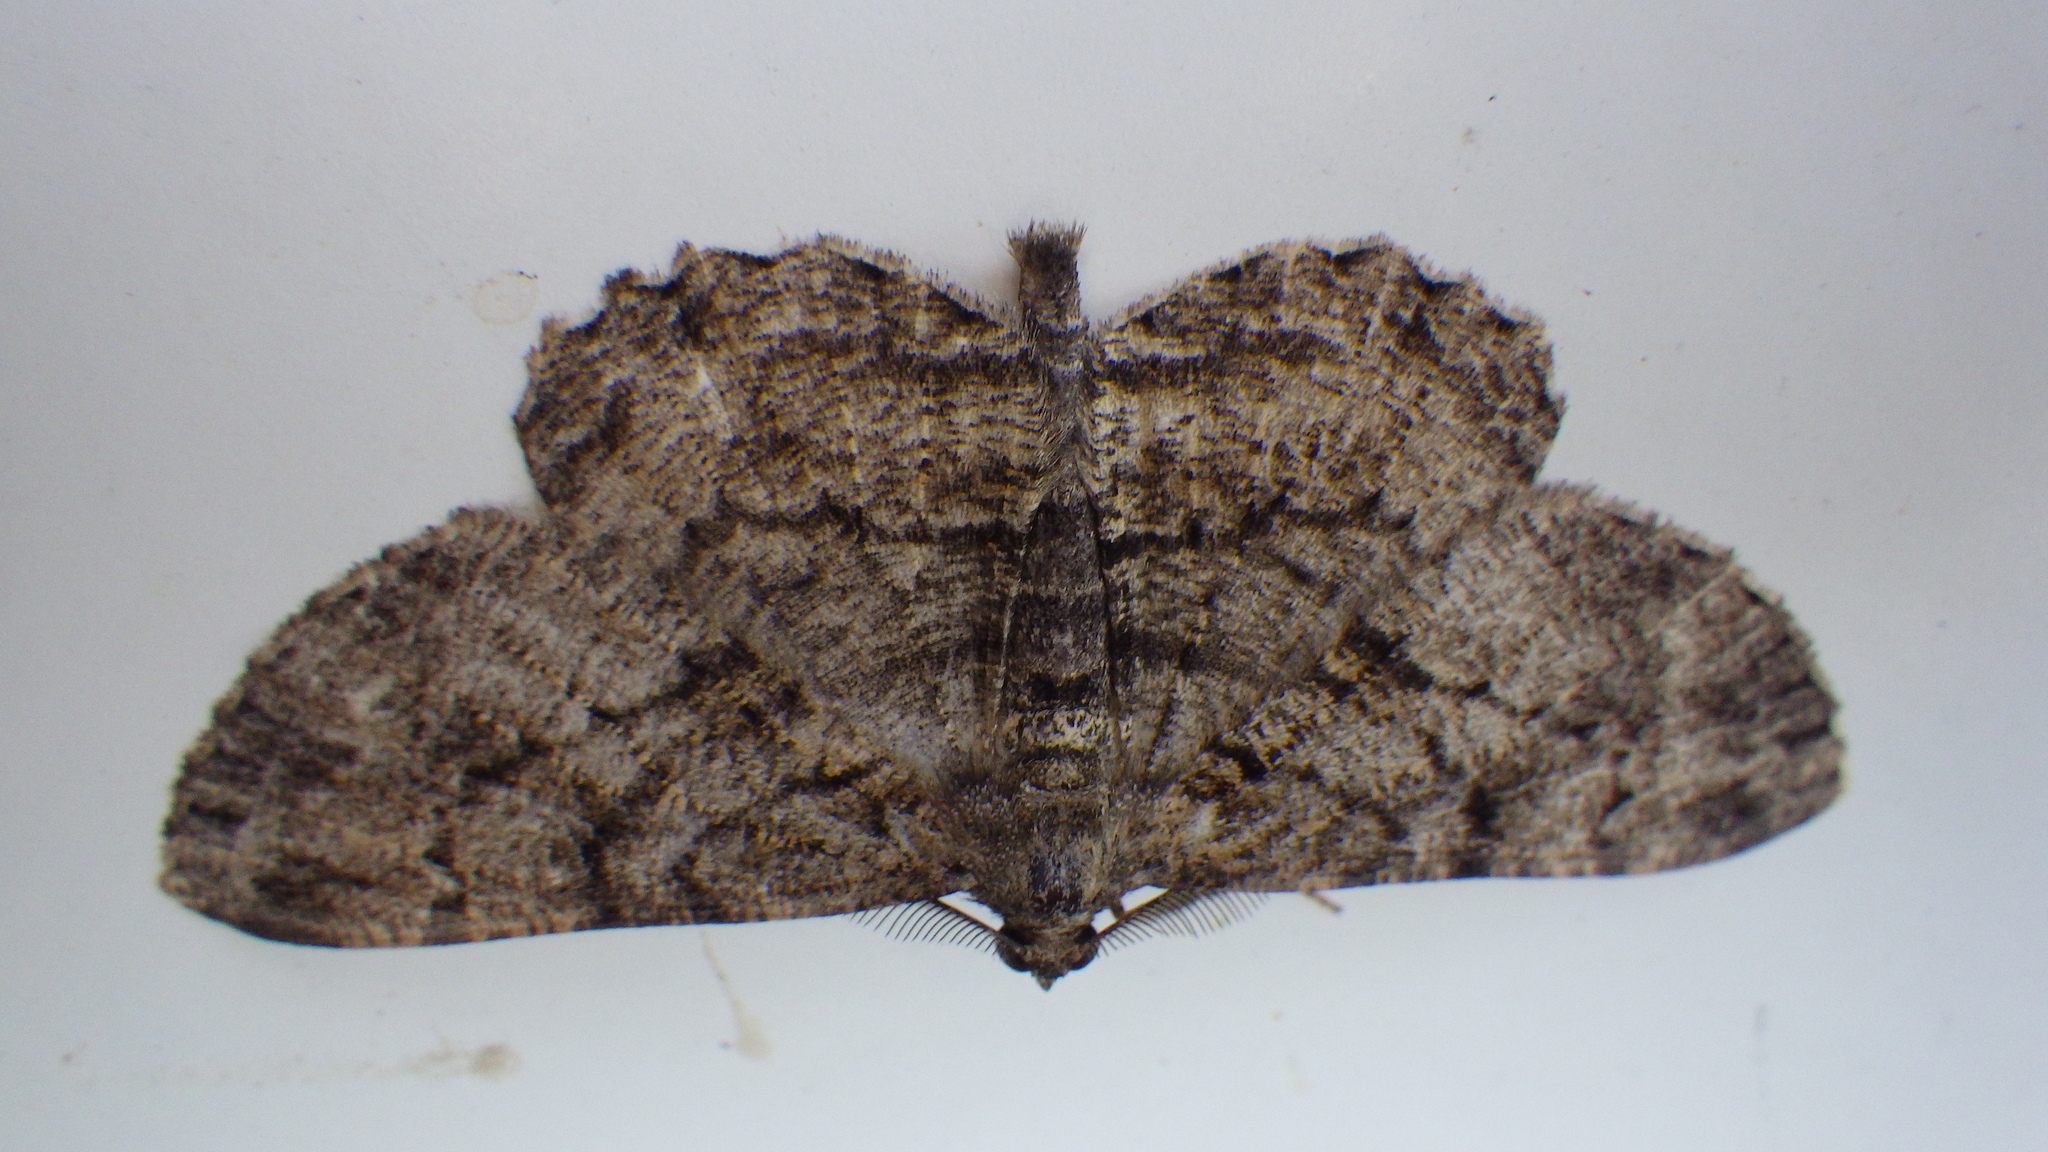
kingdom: Animalia
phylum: Arthropoda
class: Insecta
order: Lepidoptera
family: Geometridae
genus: Peribatodes
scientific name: Peribatodes rhomboidaria
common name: Willow beauty
